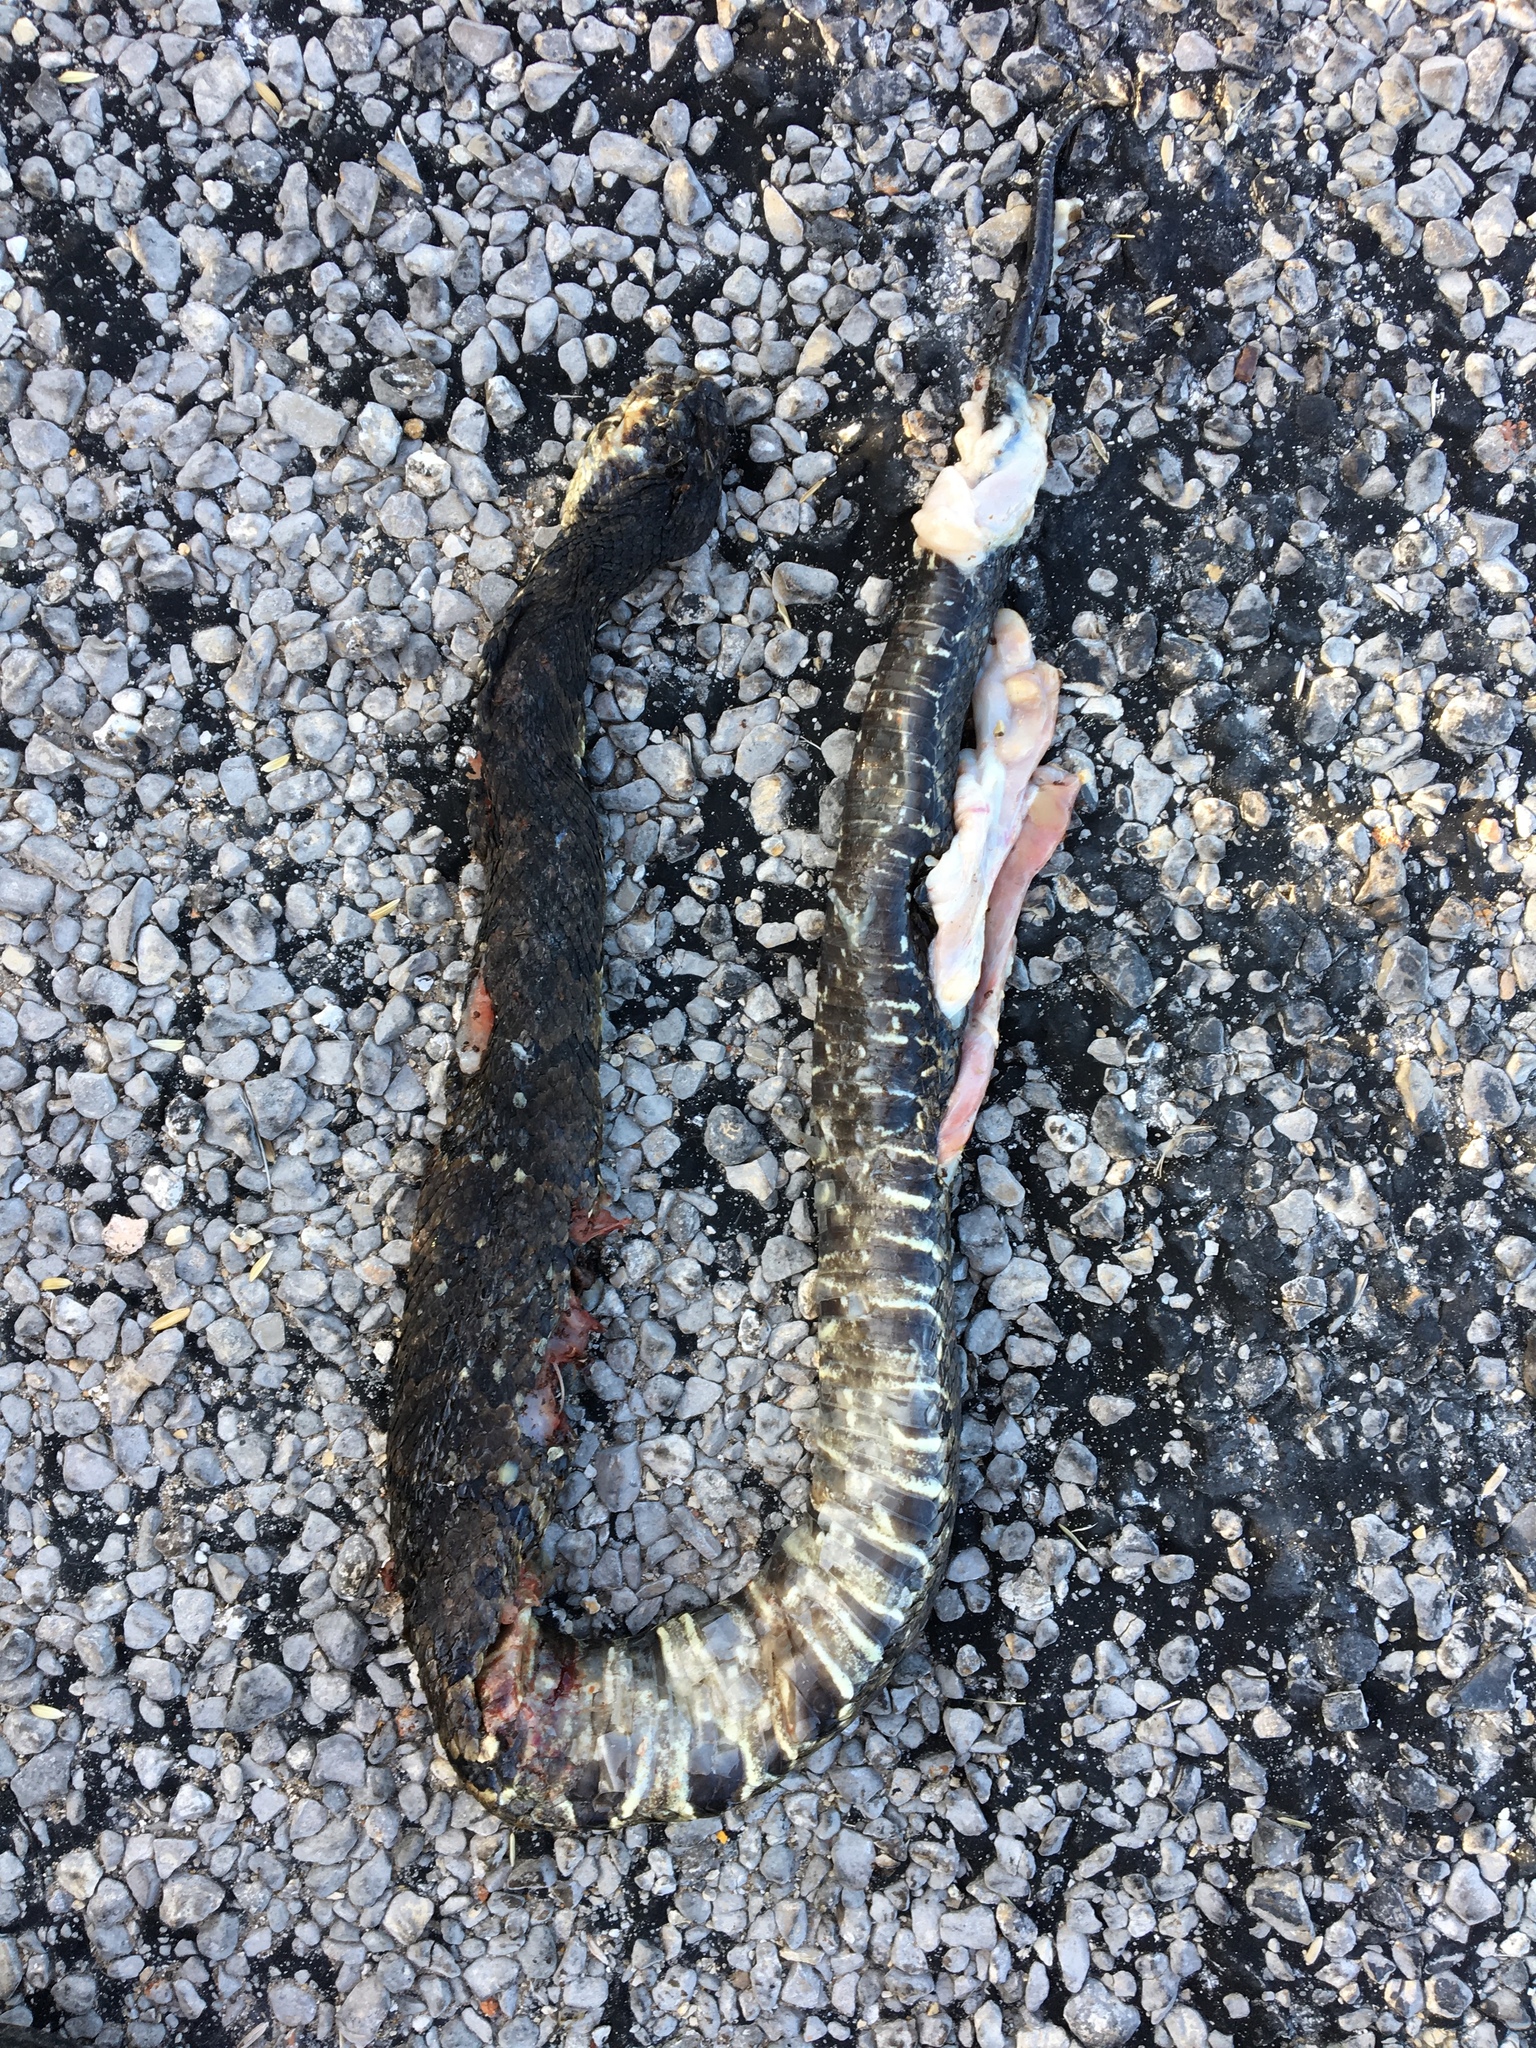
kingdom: Animalia
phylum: Chordata
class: Squamata
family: Viperidae
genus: Agkistrodon
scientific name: Agkistrodon piscivorus
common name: Cottonmouth
